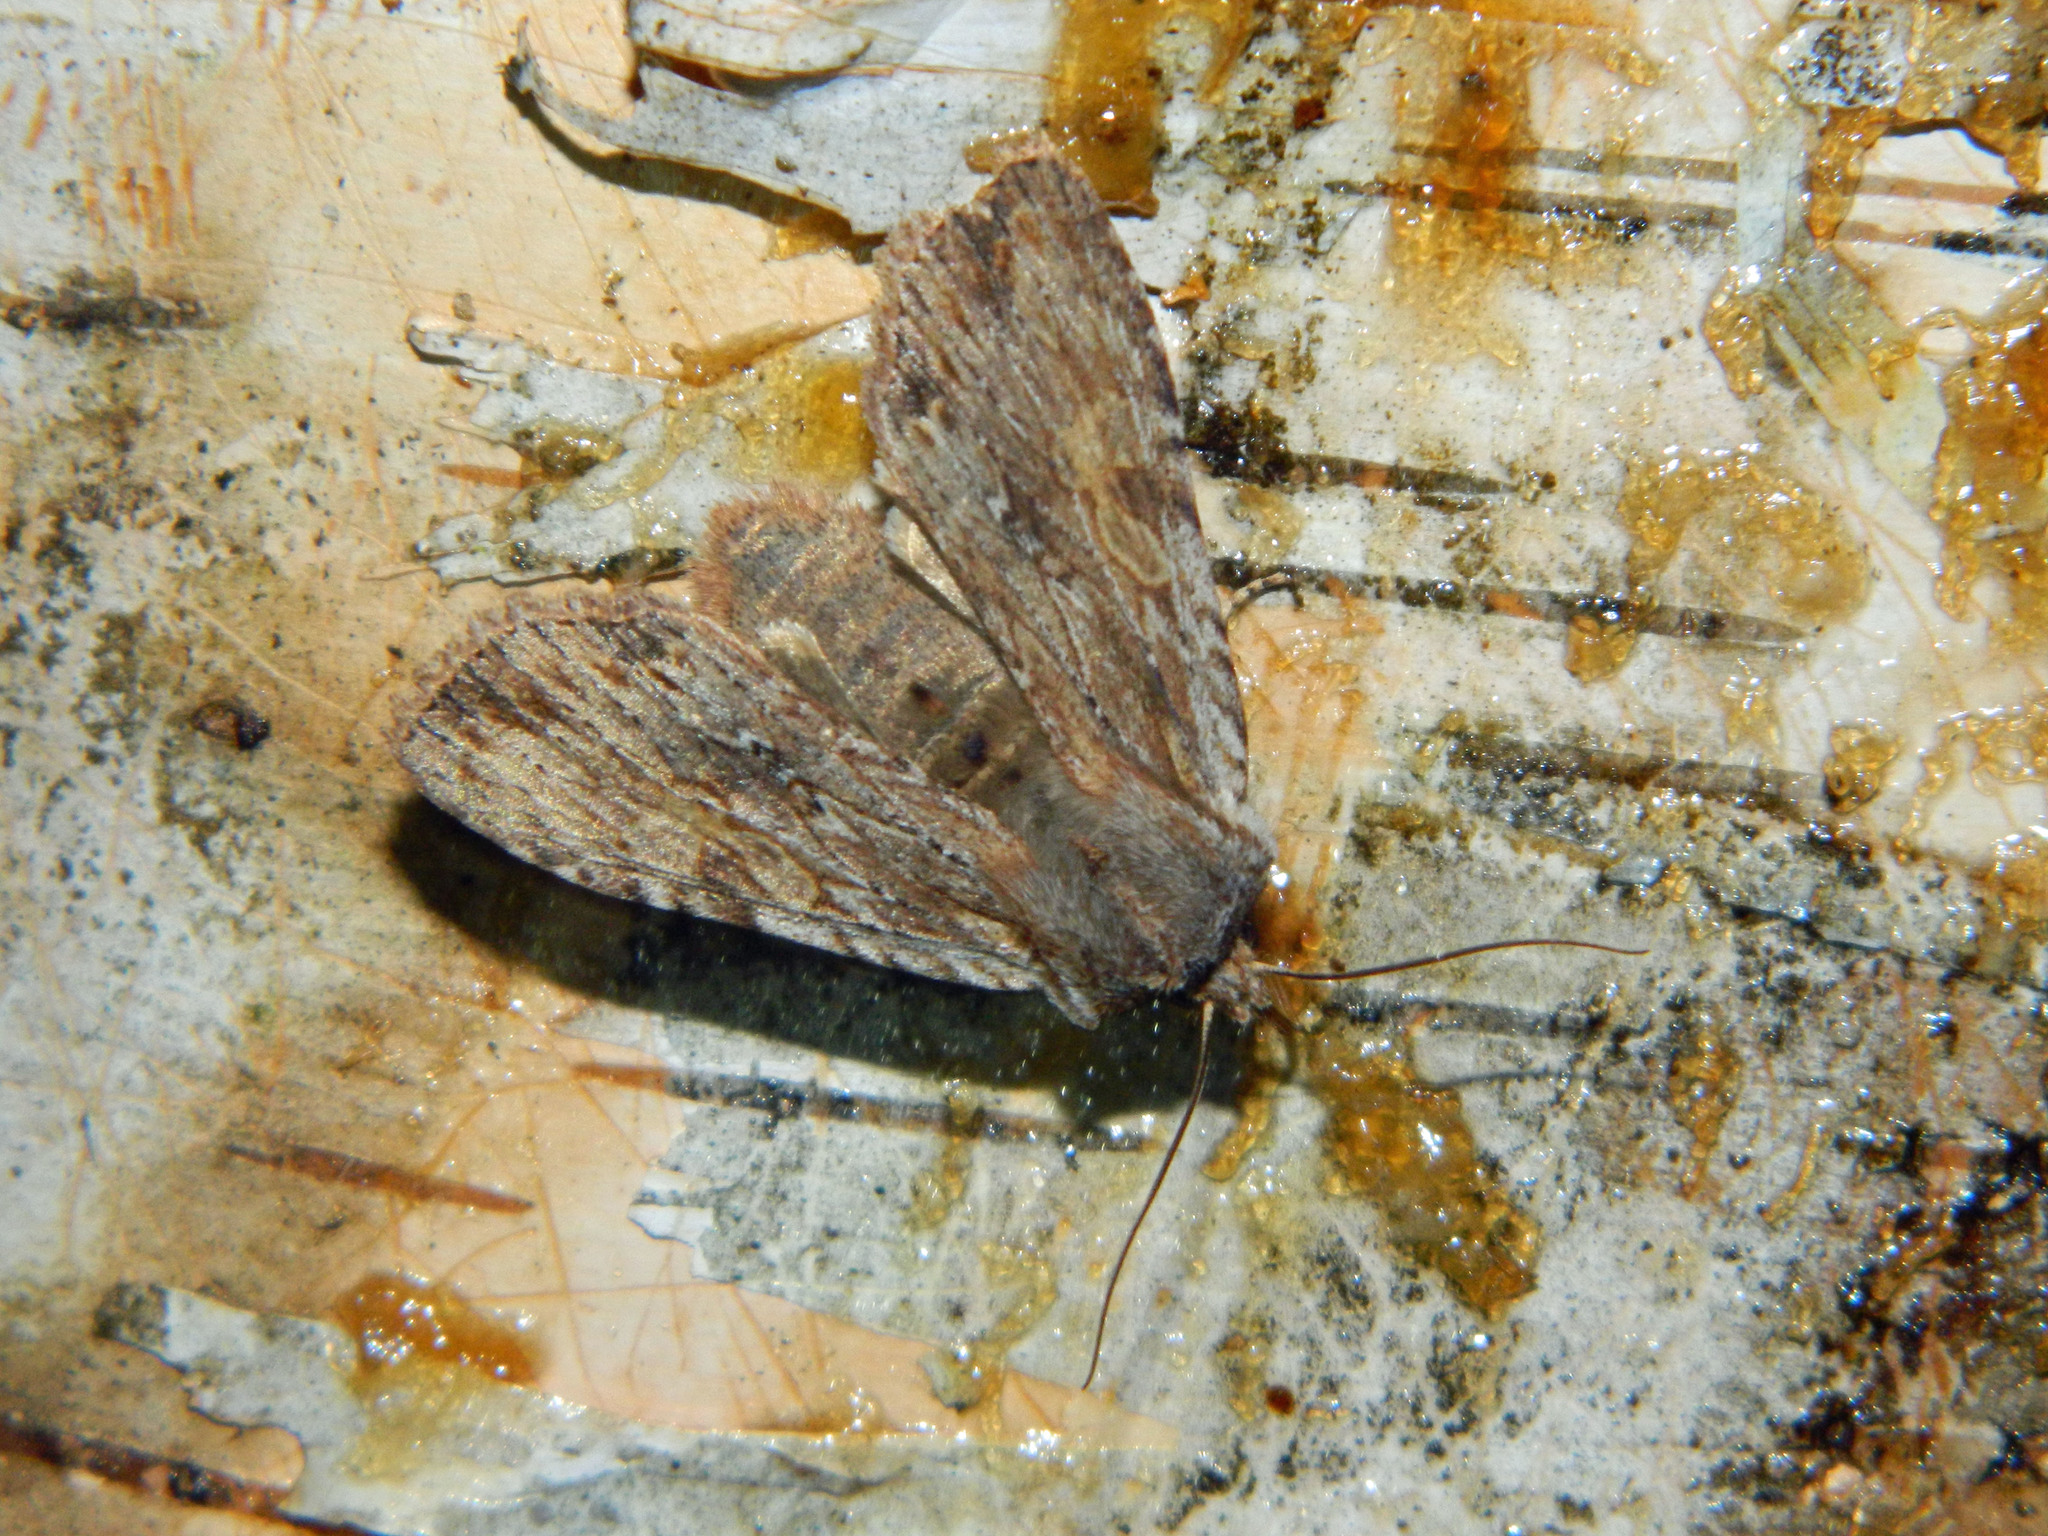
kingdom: Animalia
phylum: Arthropoda
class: Insecta
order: Lepidoptera
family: Noctuidae
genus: Lithophane
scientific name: Lithophane petulca
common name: Wanton pinion
